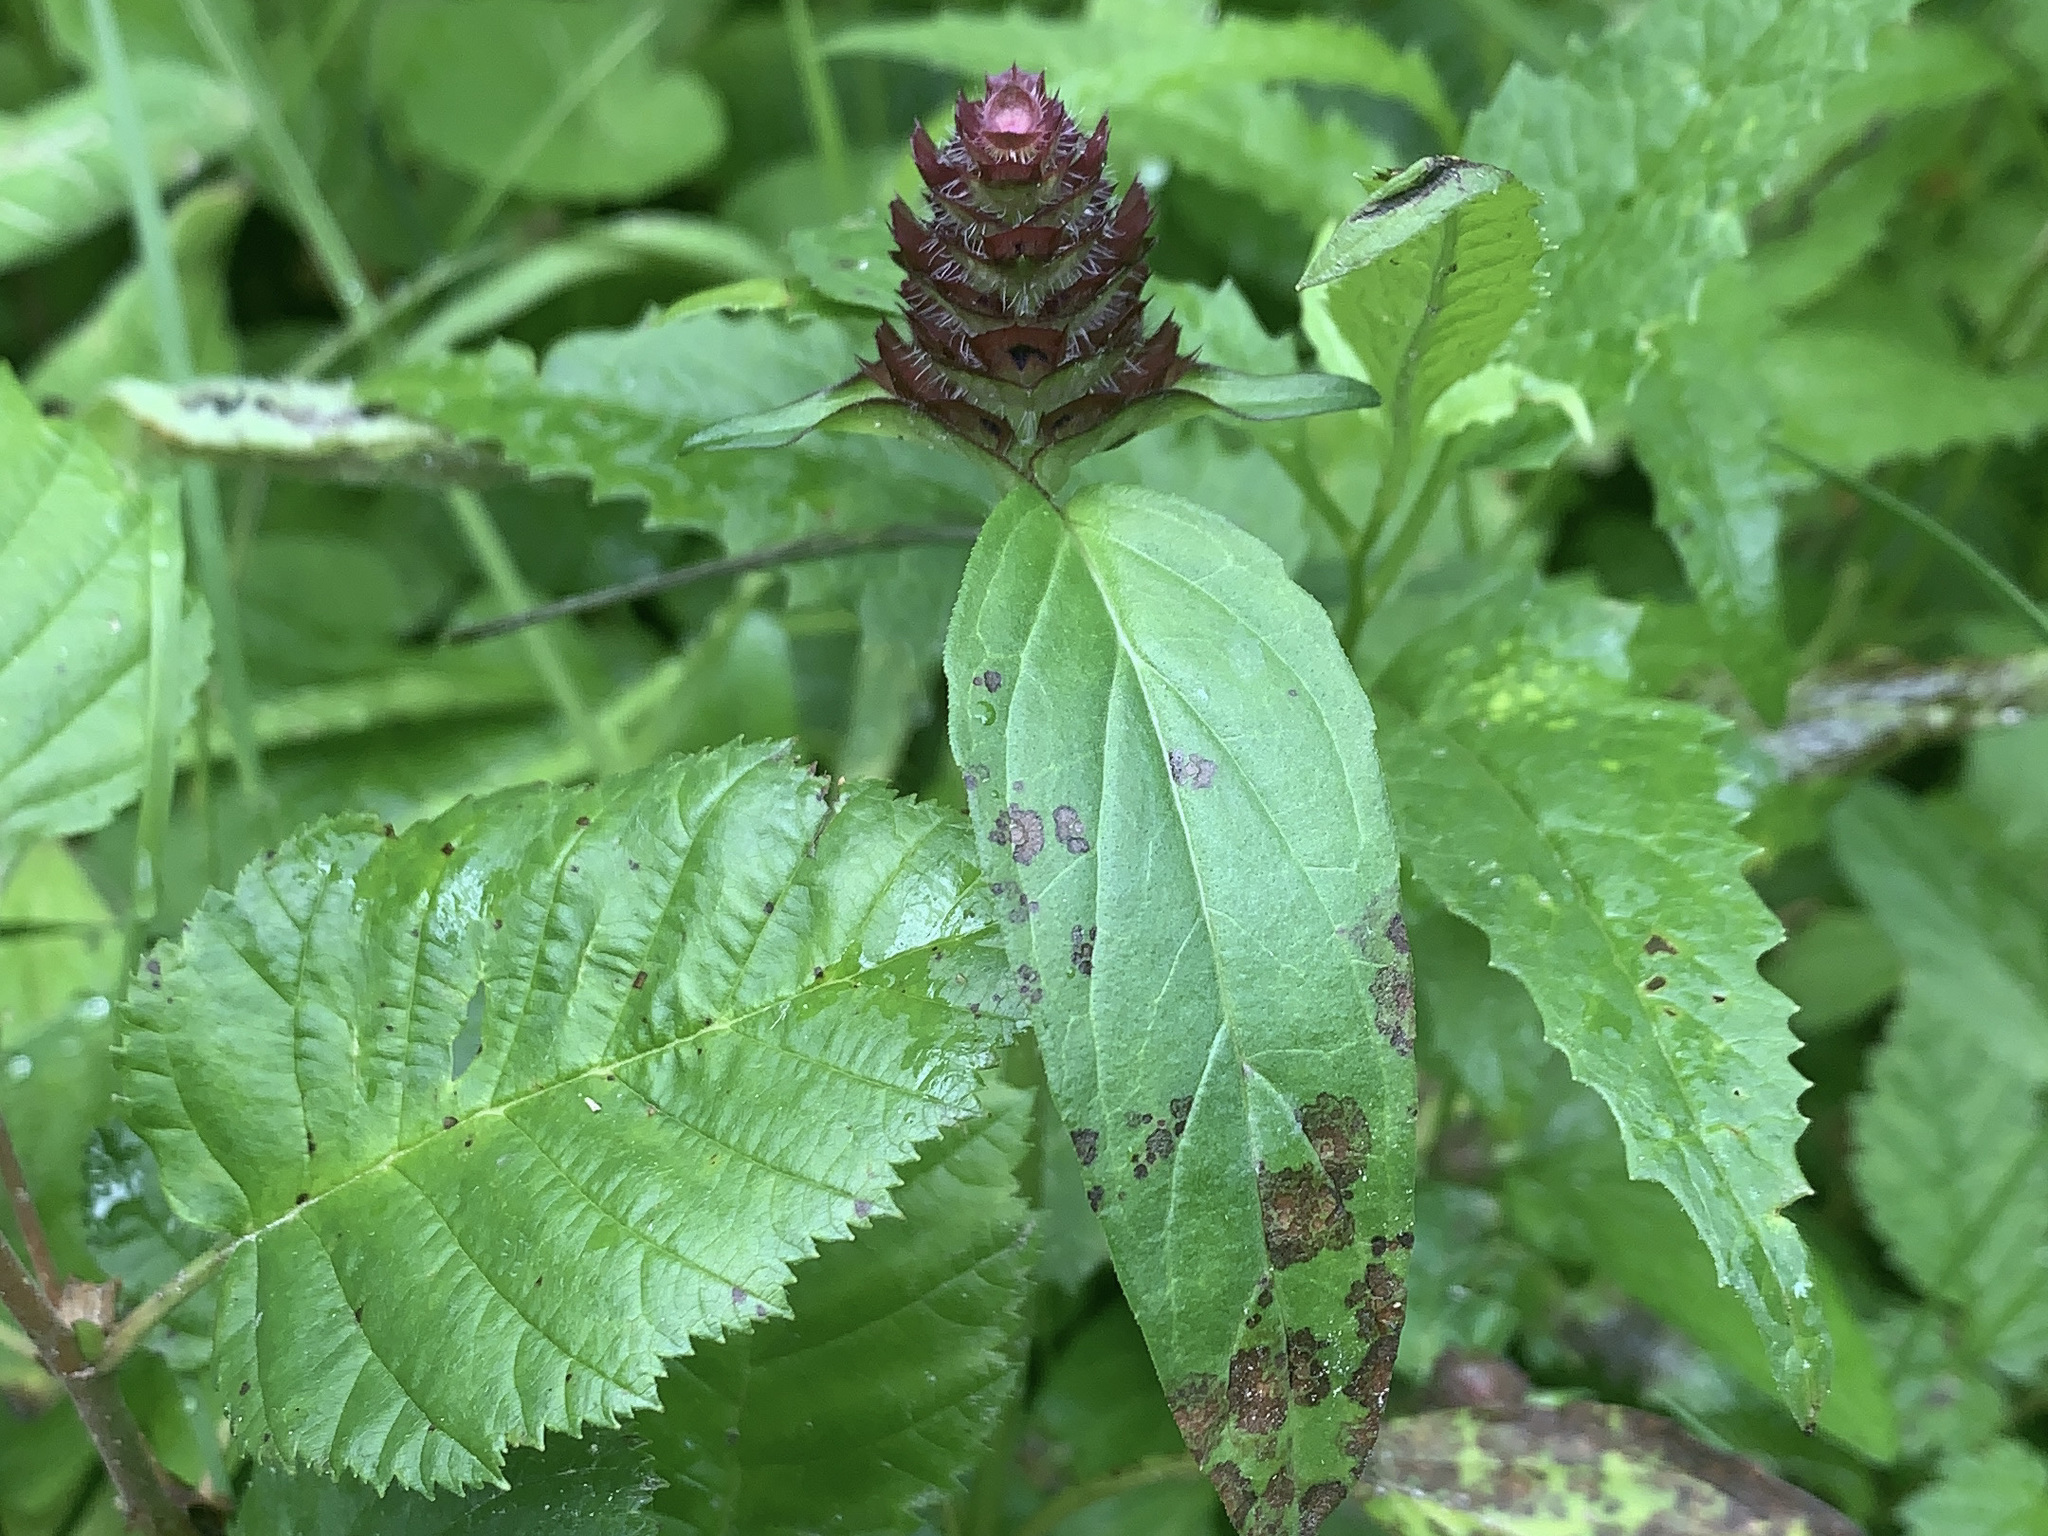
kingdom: Plantae
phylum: Tracheophyta
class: Magnoliopsida
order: Lamiales
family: Lamiaceae
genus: Prunella
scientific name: Prunella vulgaris
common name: Heal-all
